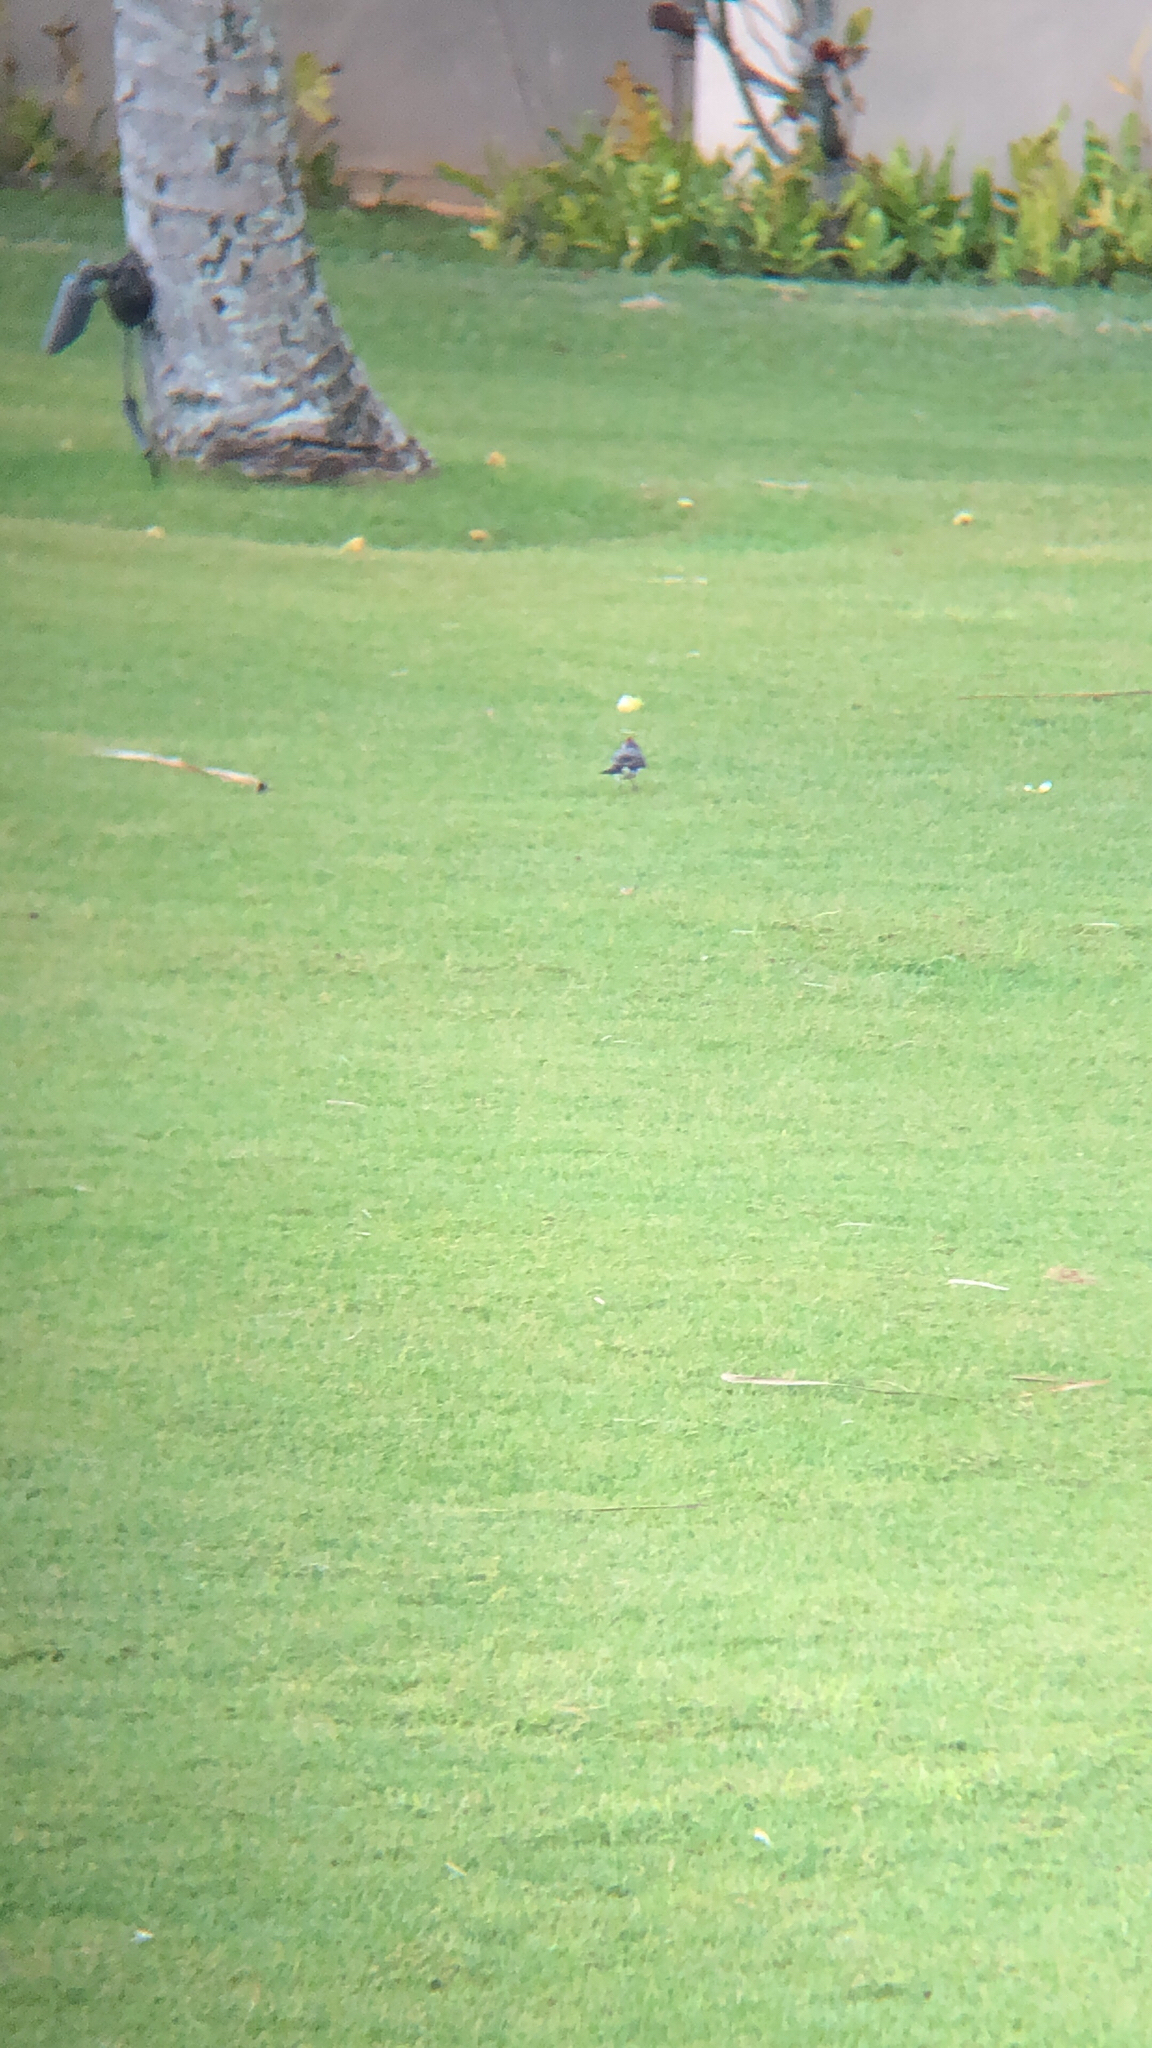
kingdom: Animalia
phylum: Chordata
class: Aves
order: Passeriformes
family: Thraupidae
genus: Paroaria
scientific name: Paroaria coronata
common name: Red-crested cardinal
